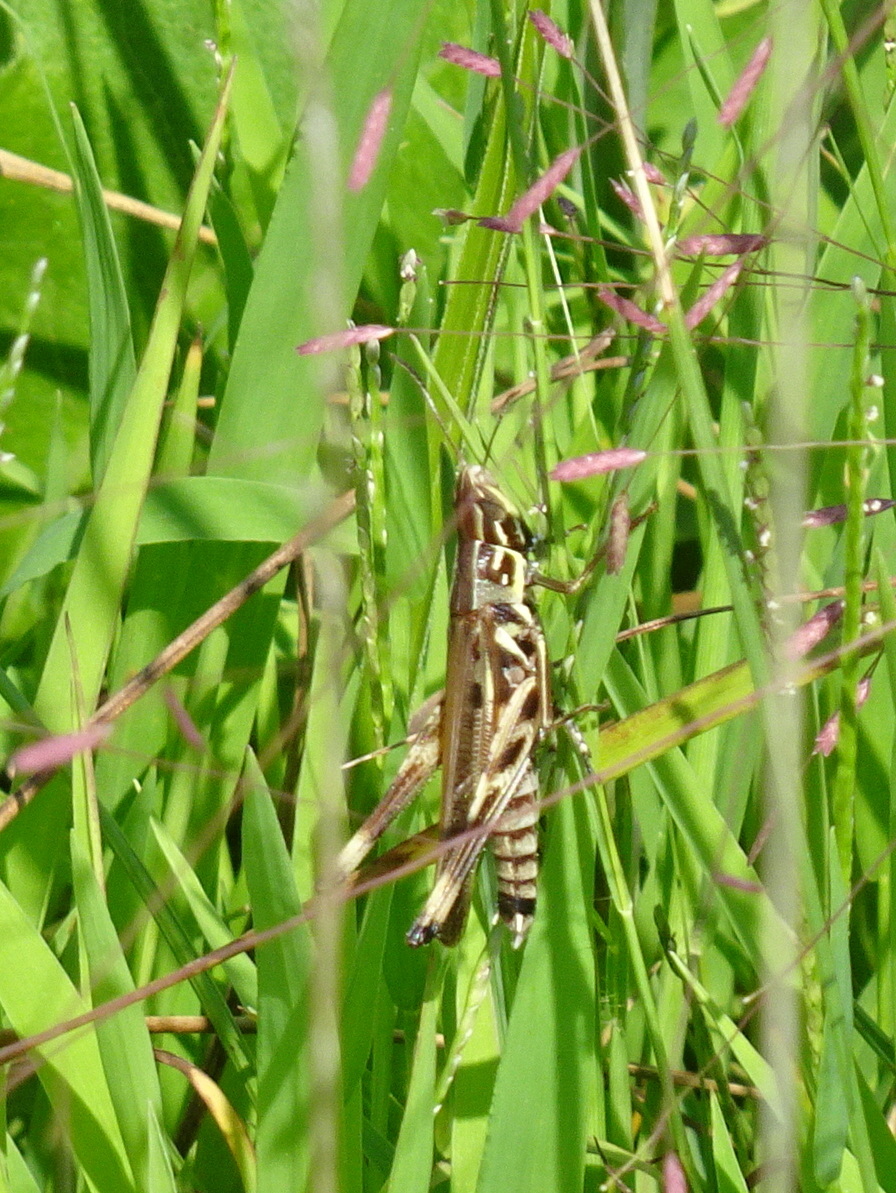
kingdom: Animalia
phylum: Arthropoda
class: Insecta
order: Orthoptera
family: Acrididae
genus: Syrbula
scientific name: Syrbula admirabilis
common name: Handsome grasshopper
